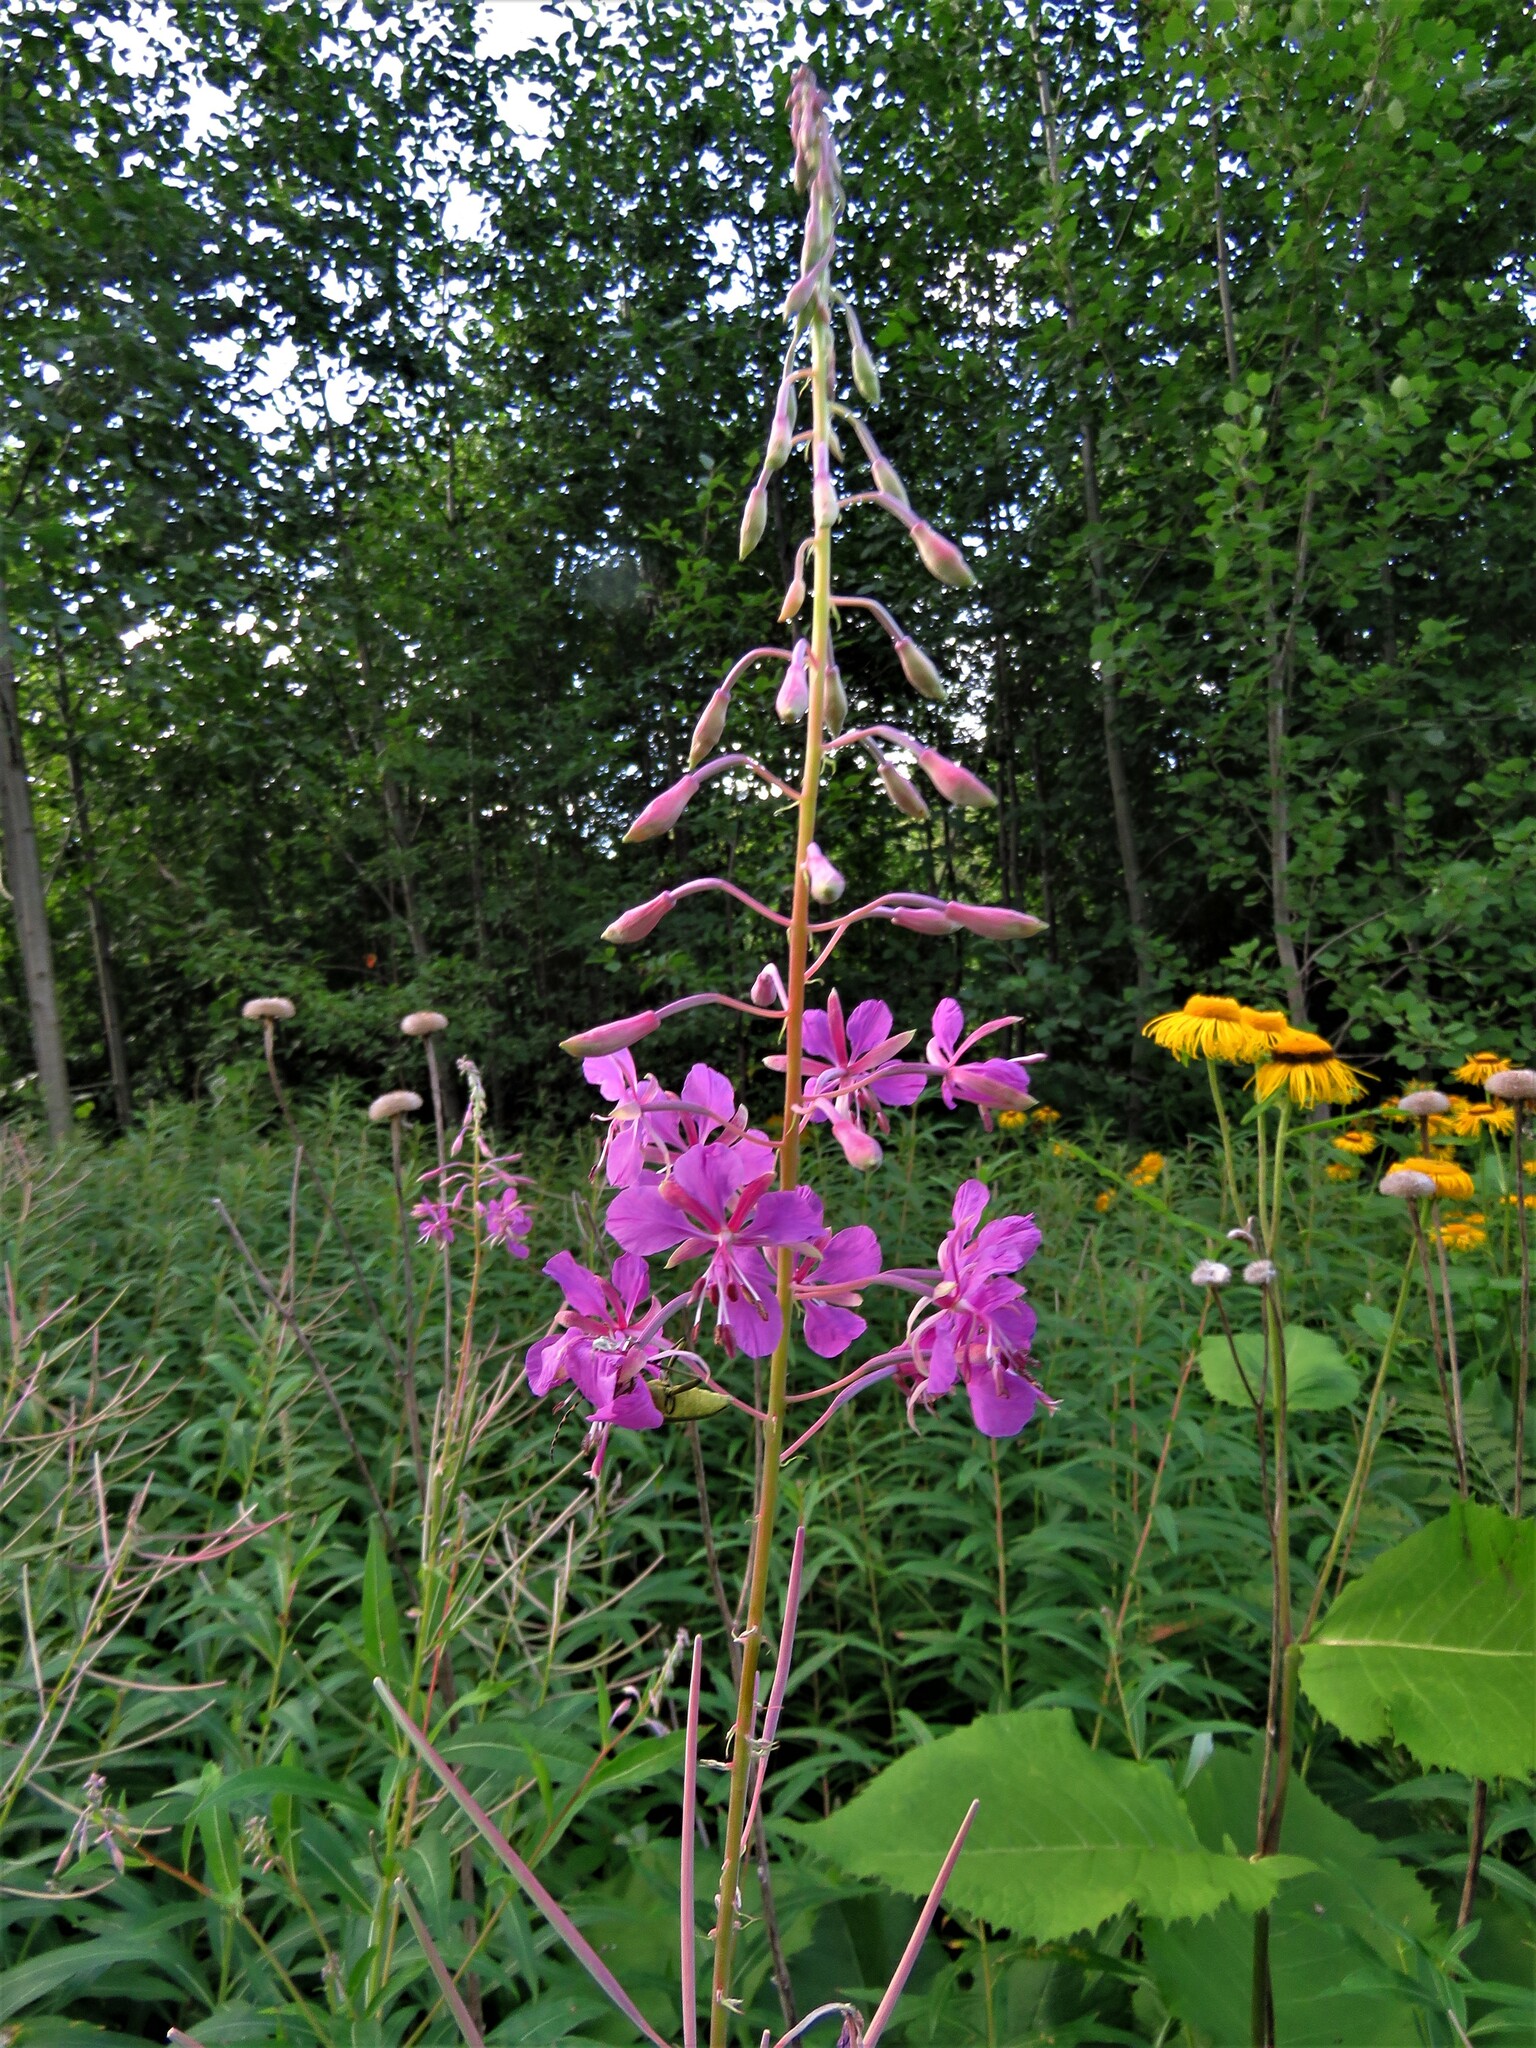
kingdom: Plantae
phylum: Tracheophyta
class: Magnoliopsida
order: Myrtales
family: Onagraceae
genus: Chamaenerion
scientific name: Chamaenerion angustifolium
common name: Fireweed
